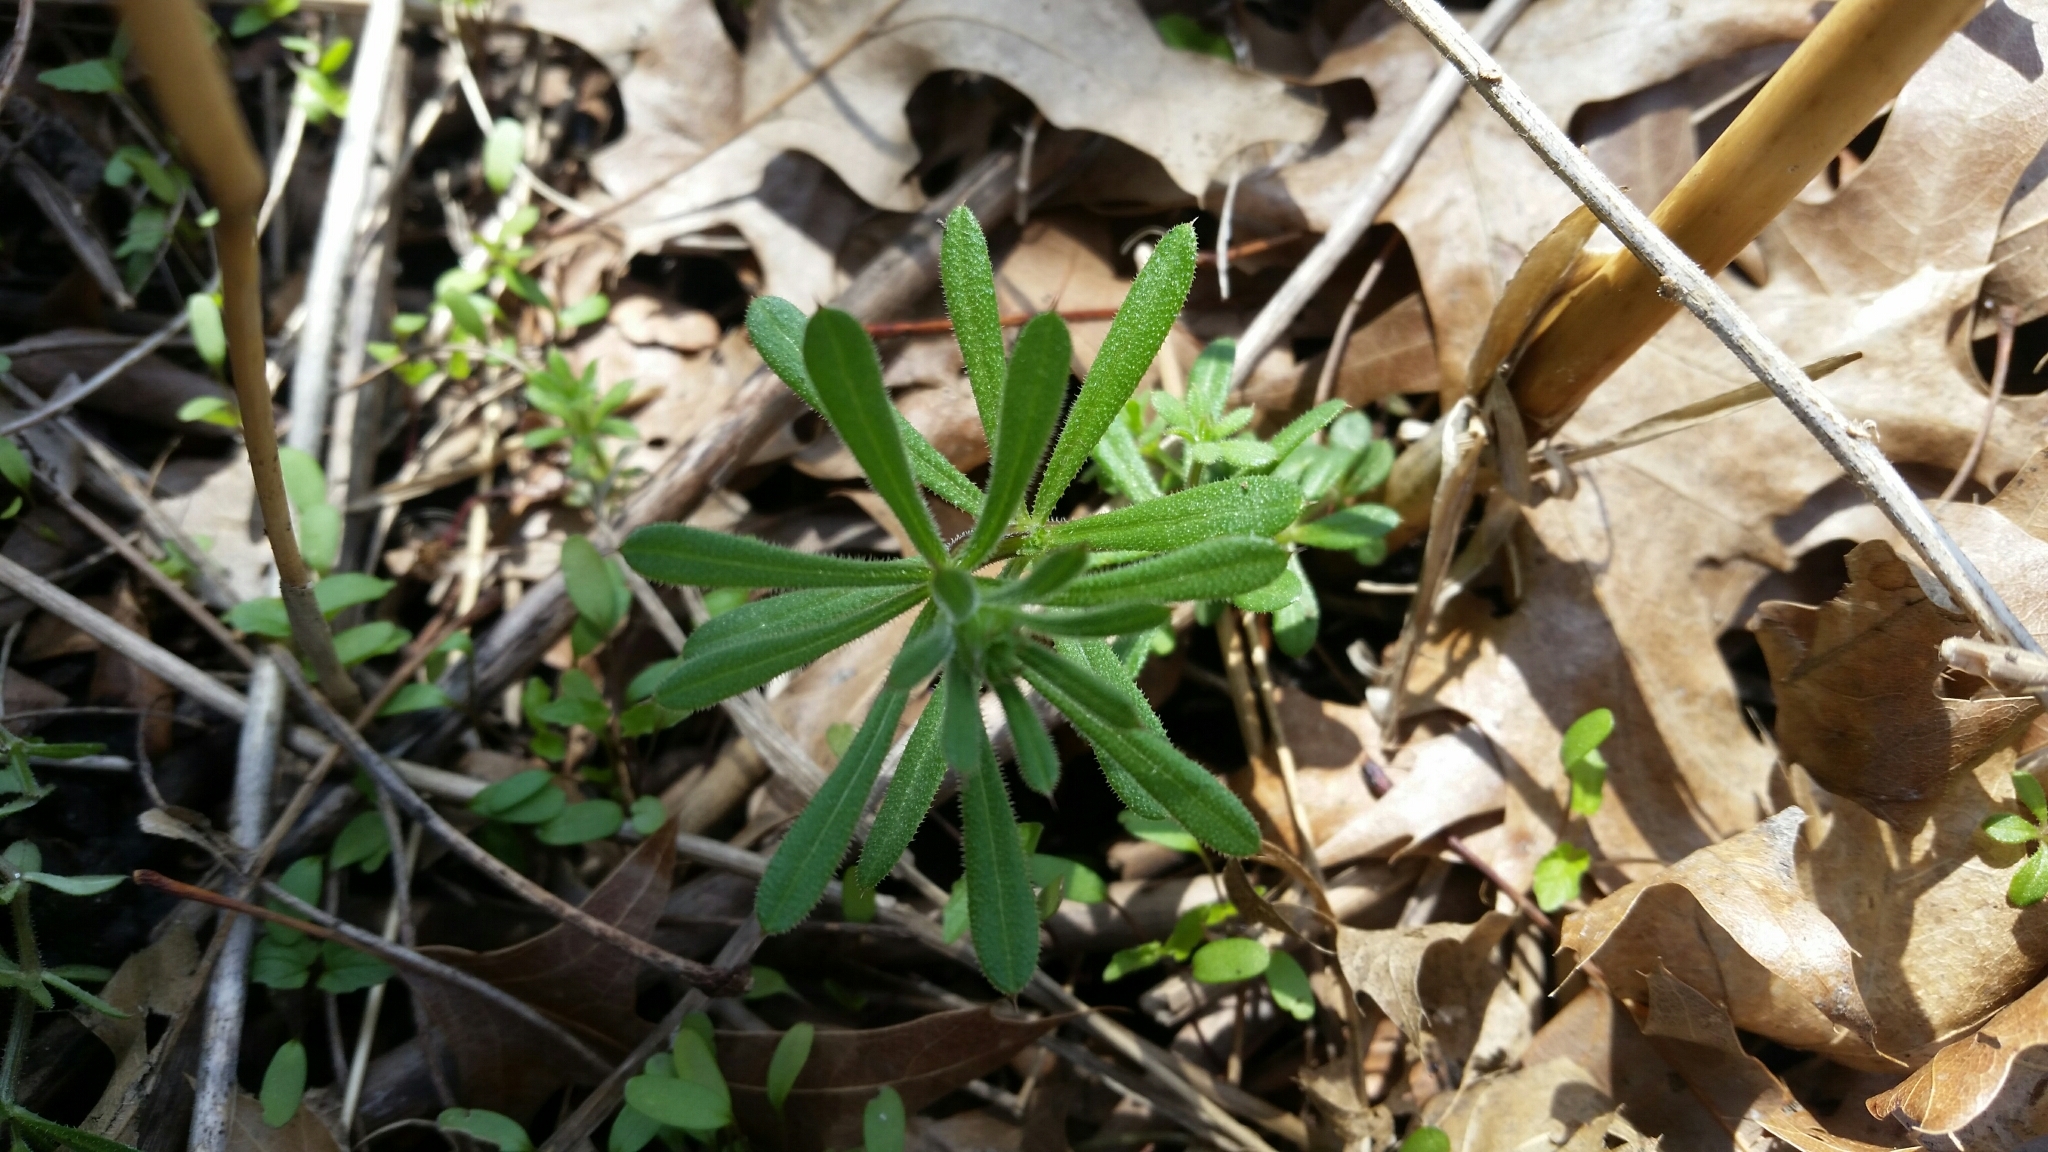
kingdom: Plantae
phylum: Tracheophyta
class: Magnoliopsida
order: Gentianales
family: Rubiaceae
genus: Galium
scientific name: Galium aparine
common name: Cleavers
